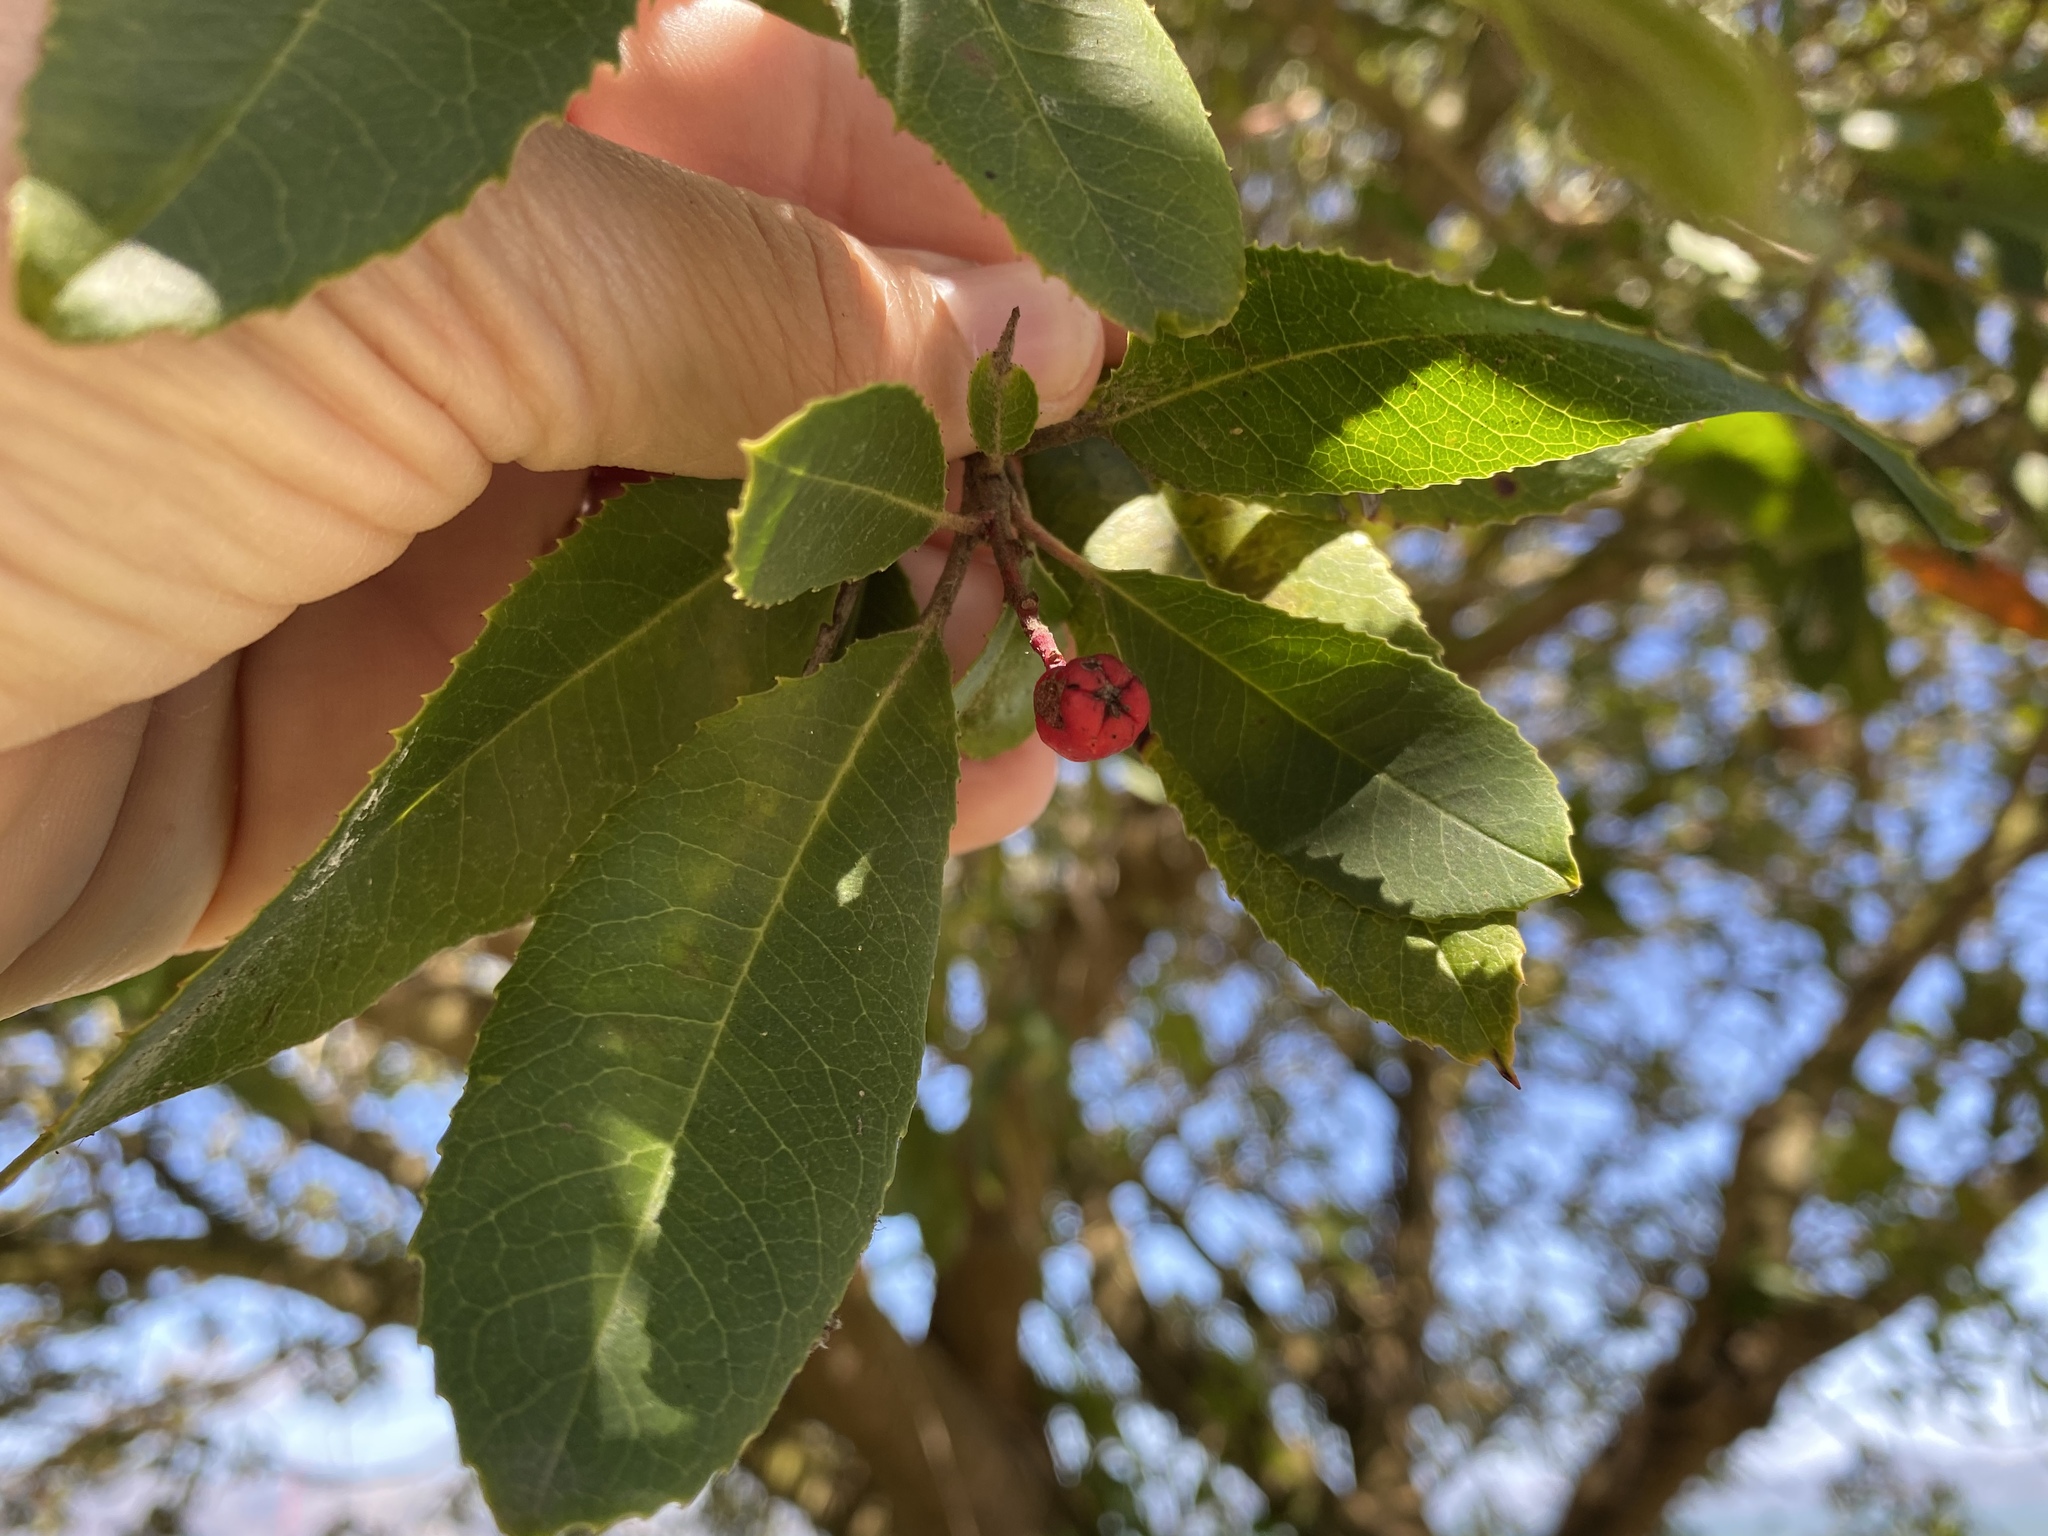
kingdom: Plantae
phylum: Tracheophyta
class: Magnoliopsida
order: Rosales
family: Rosaceae
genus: Heteromeles
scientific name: Heteromeles arbutifolia
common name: California-holly
